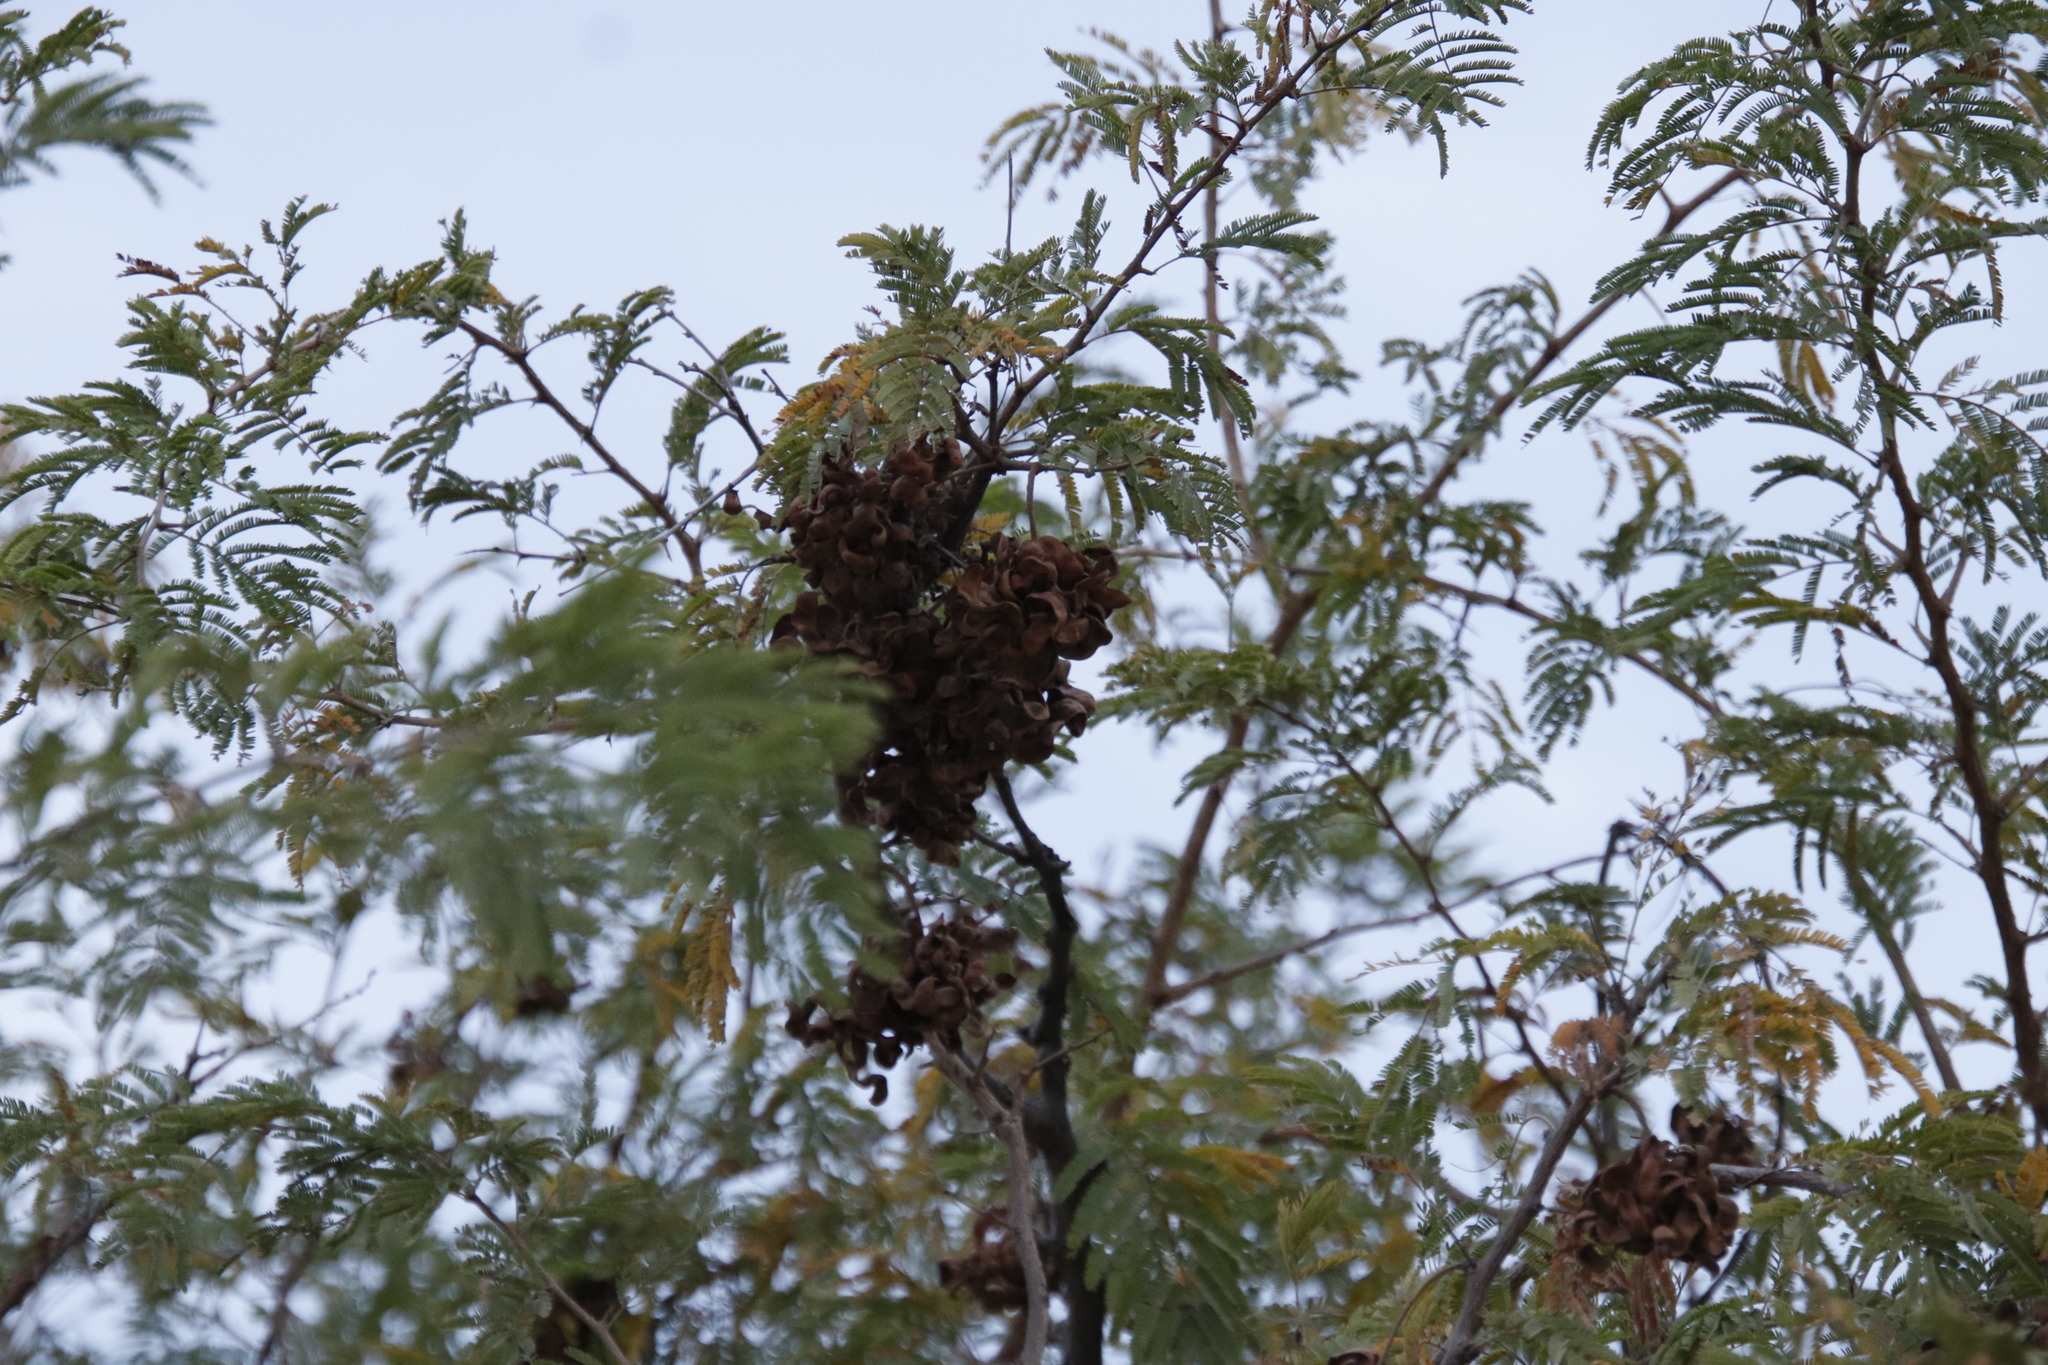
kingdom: Plantae
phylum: Tracheophyta
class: Magnoliopsida
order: Fabales
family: Fabaceae
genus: Dichrostachys
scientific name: Dichrostachys cinerea
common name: Sicklebush
